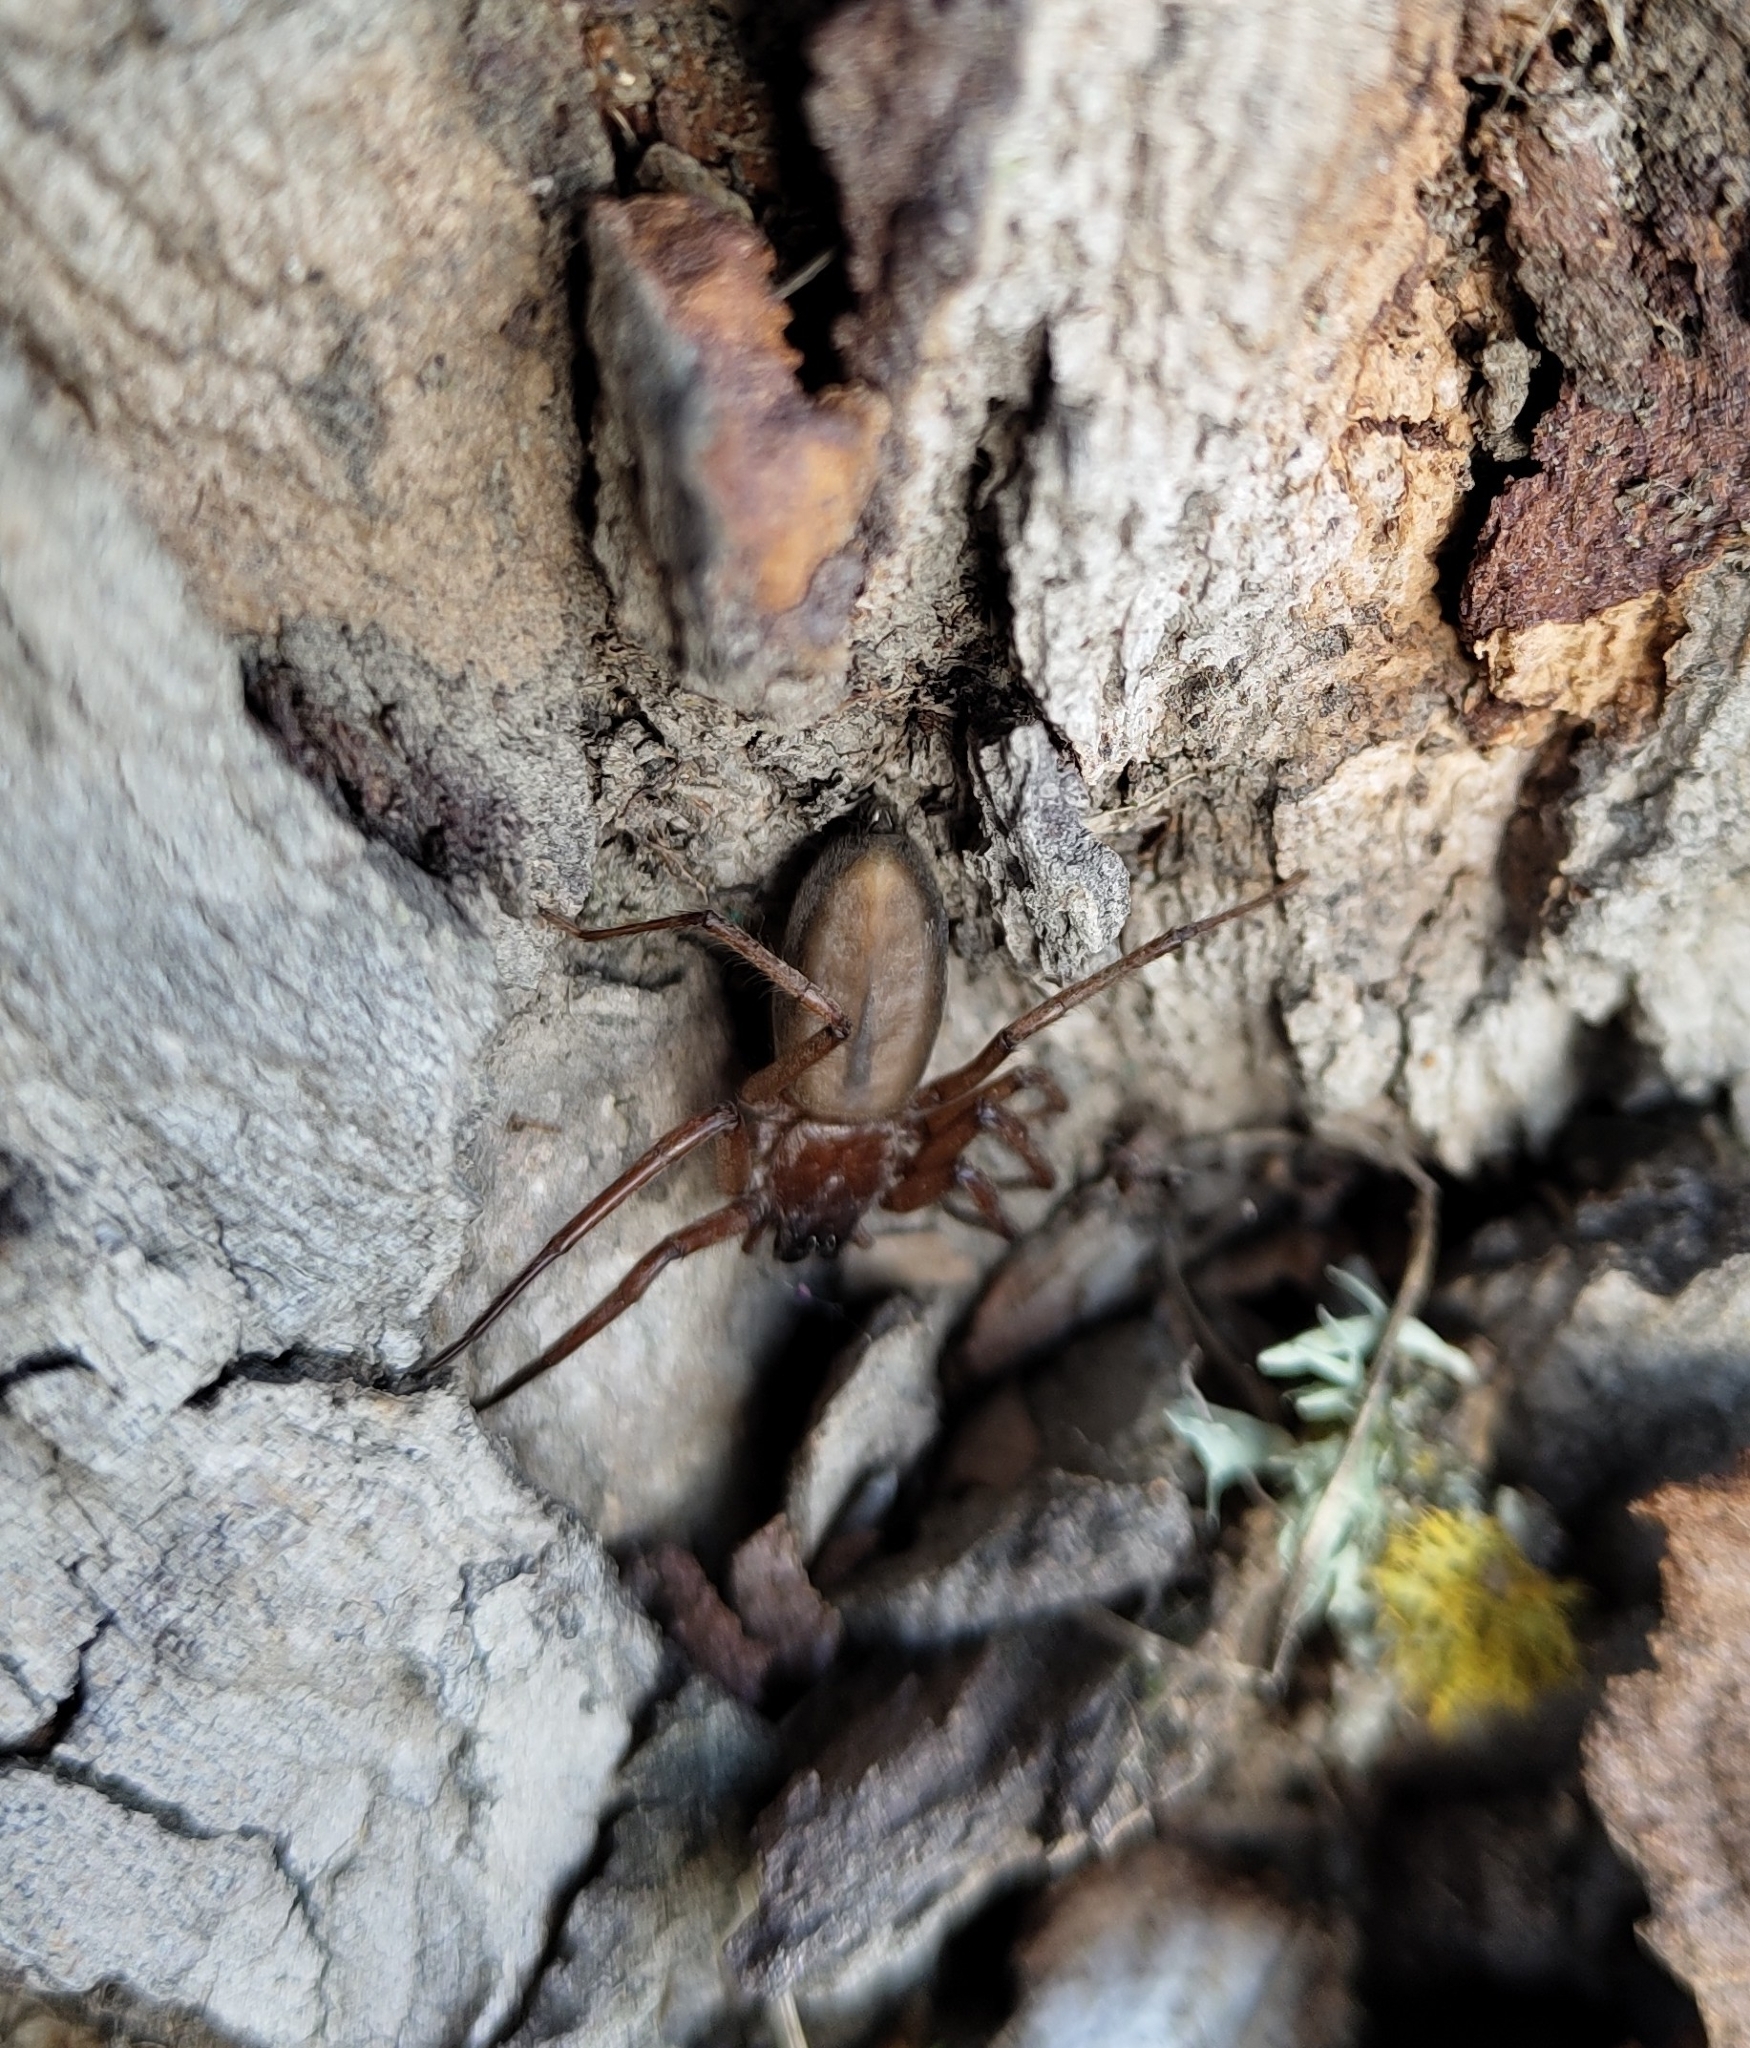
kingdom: Animalia
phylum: Arthropoda
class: Arachnida
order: Araneae
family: Trochanteriidae
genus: Hemicloea
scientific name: Hemicloea rogenhoferi
